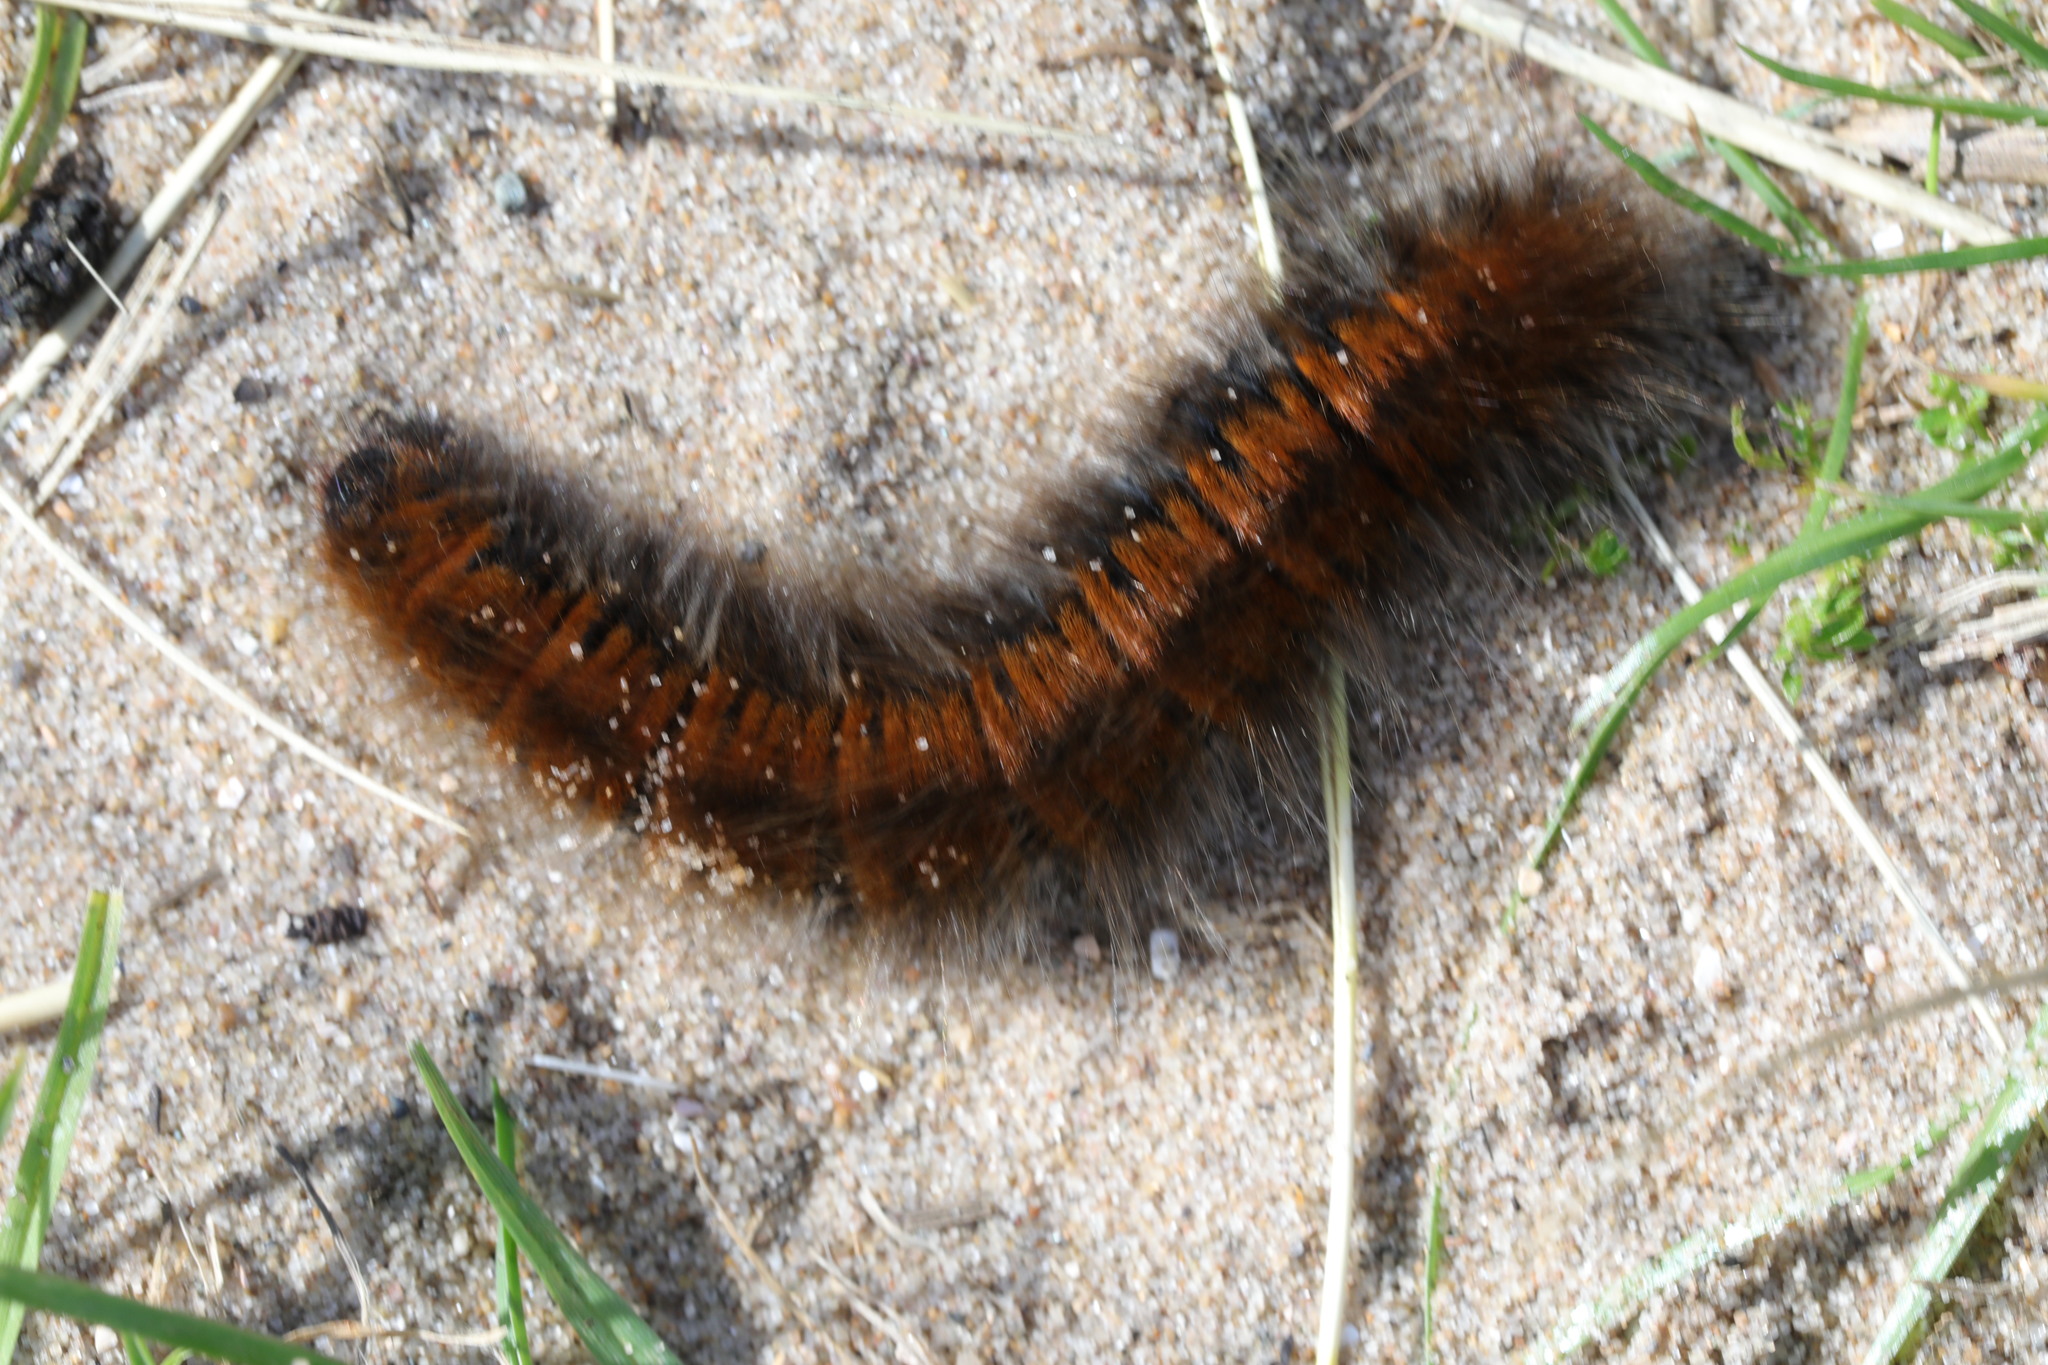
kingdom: Animalia
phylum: Arthropoda
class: Insecta
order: Lepidoptera
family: Lasiocampidae
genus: Macrothylacia
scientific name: Macrothylacia rubi
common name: Fox moth
